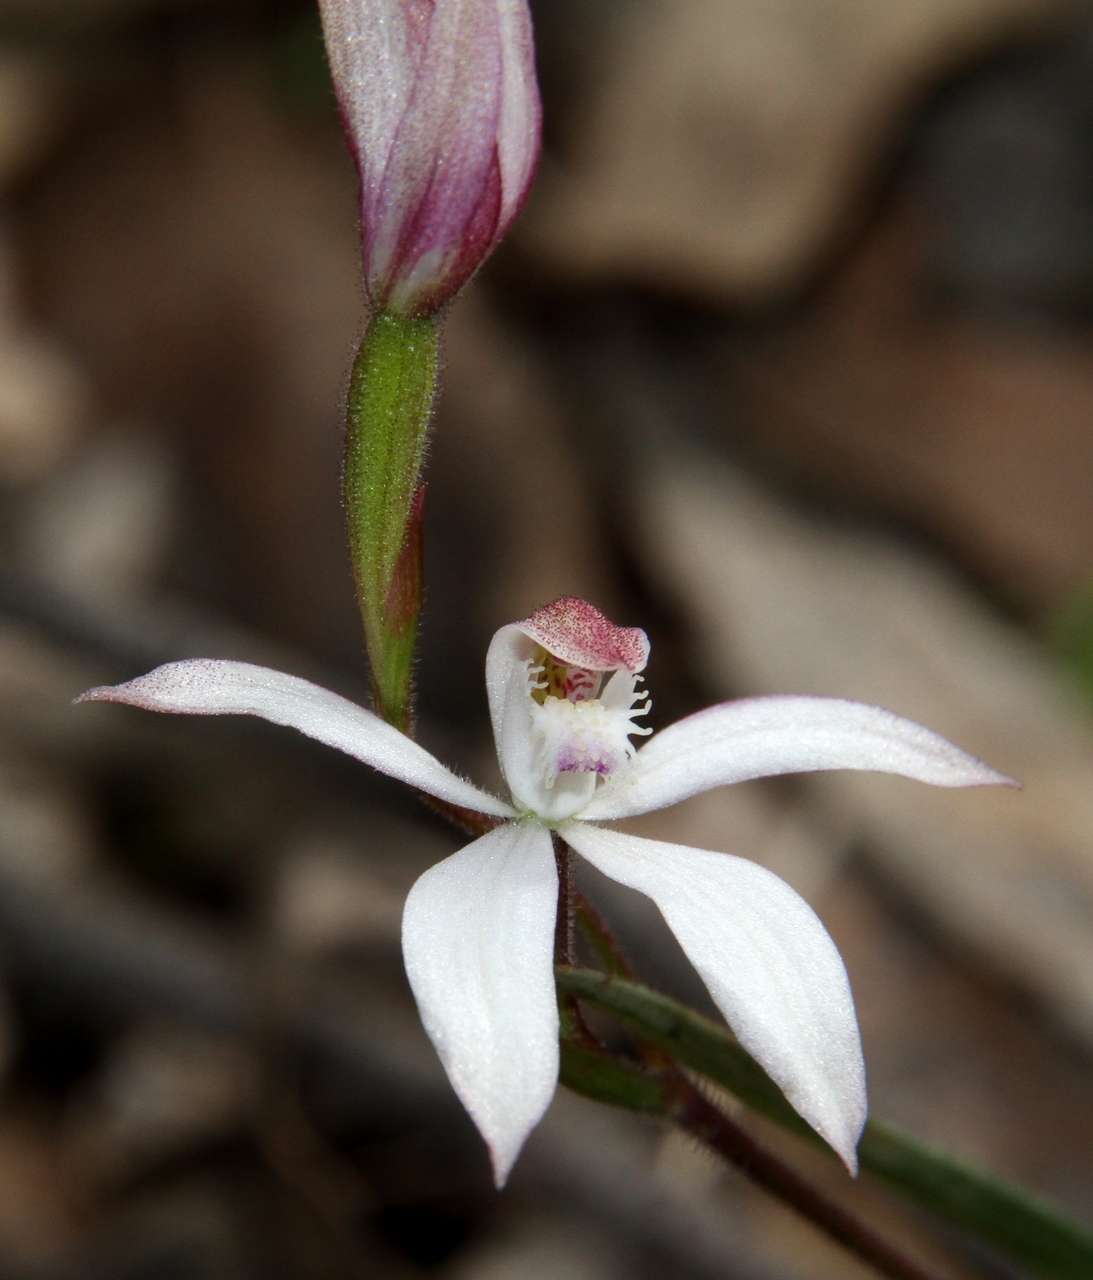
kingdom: Plantae
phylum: Tracheophyta
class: Liliopsida
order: Asparagales
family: Orchidaceae
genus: Caladenia
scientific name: Caladenia dimorpha
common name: Spicy caps
